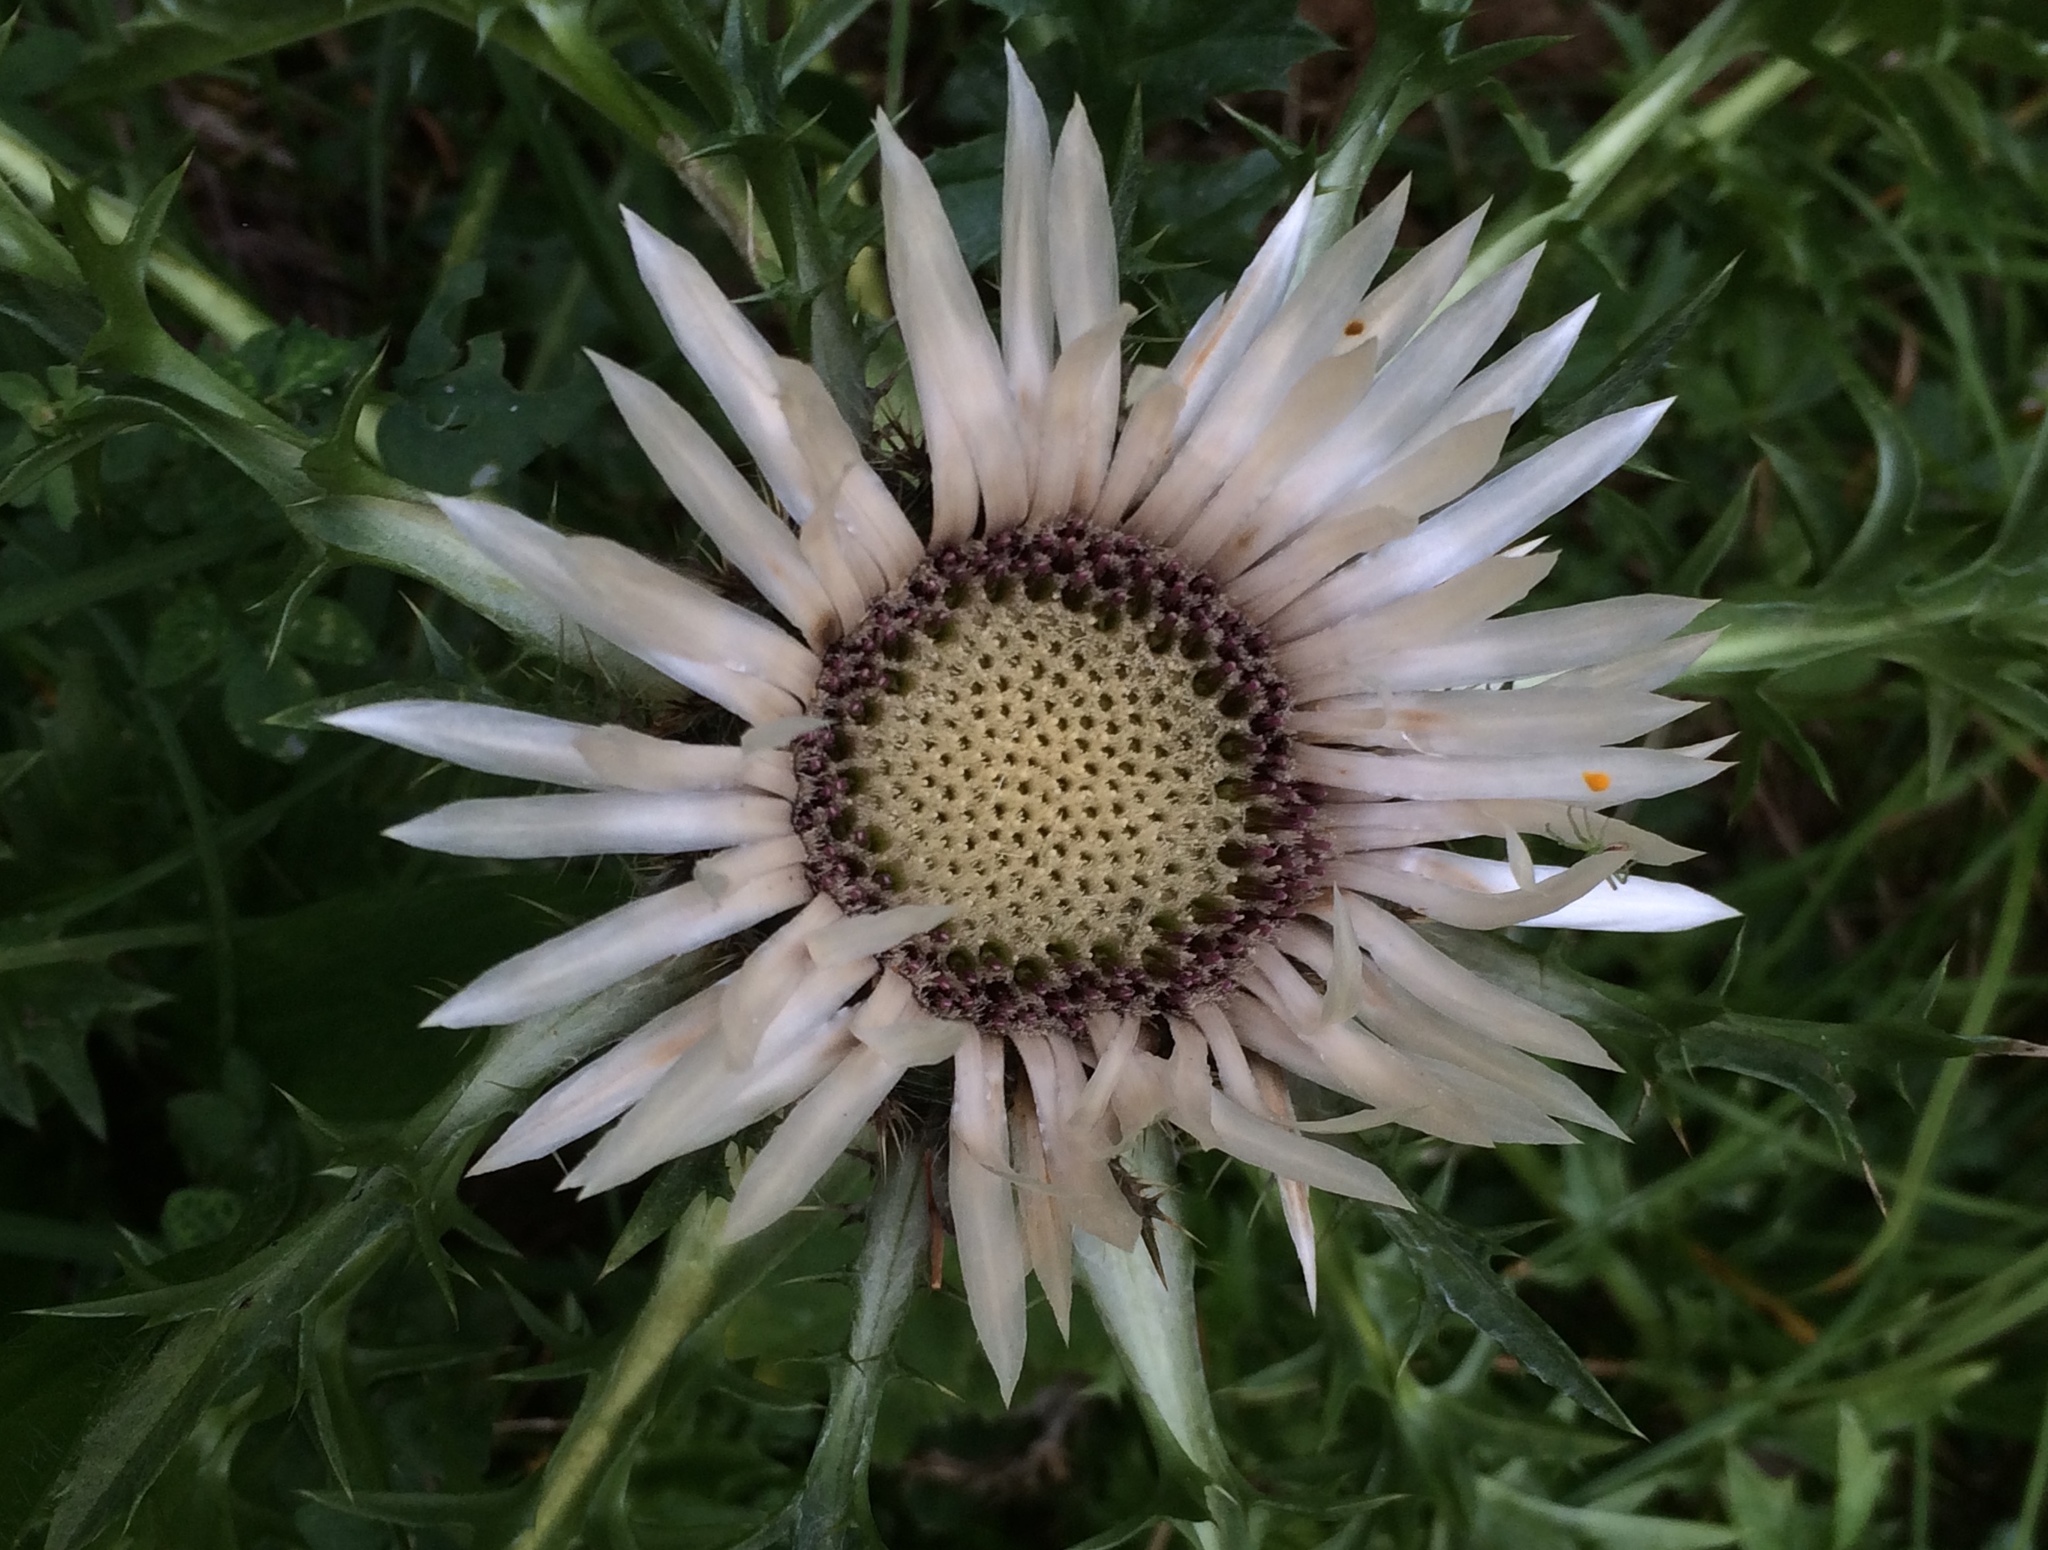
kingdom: Plantae
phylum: Tracheophyta
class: Magnoliopsida
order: Asterales
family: Asteraceae
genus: Carlina
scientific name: Carlina acaulis
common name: Stemless carline thistle
